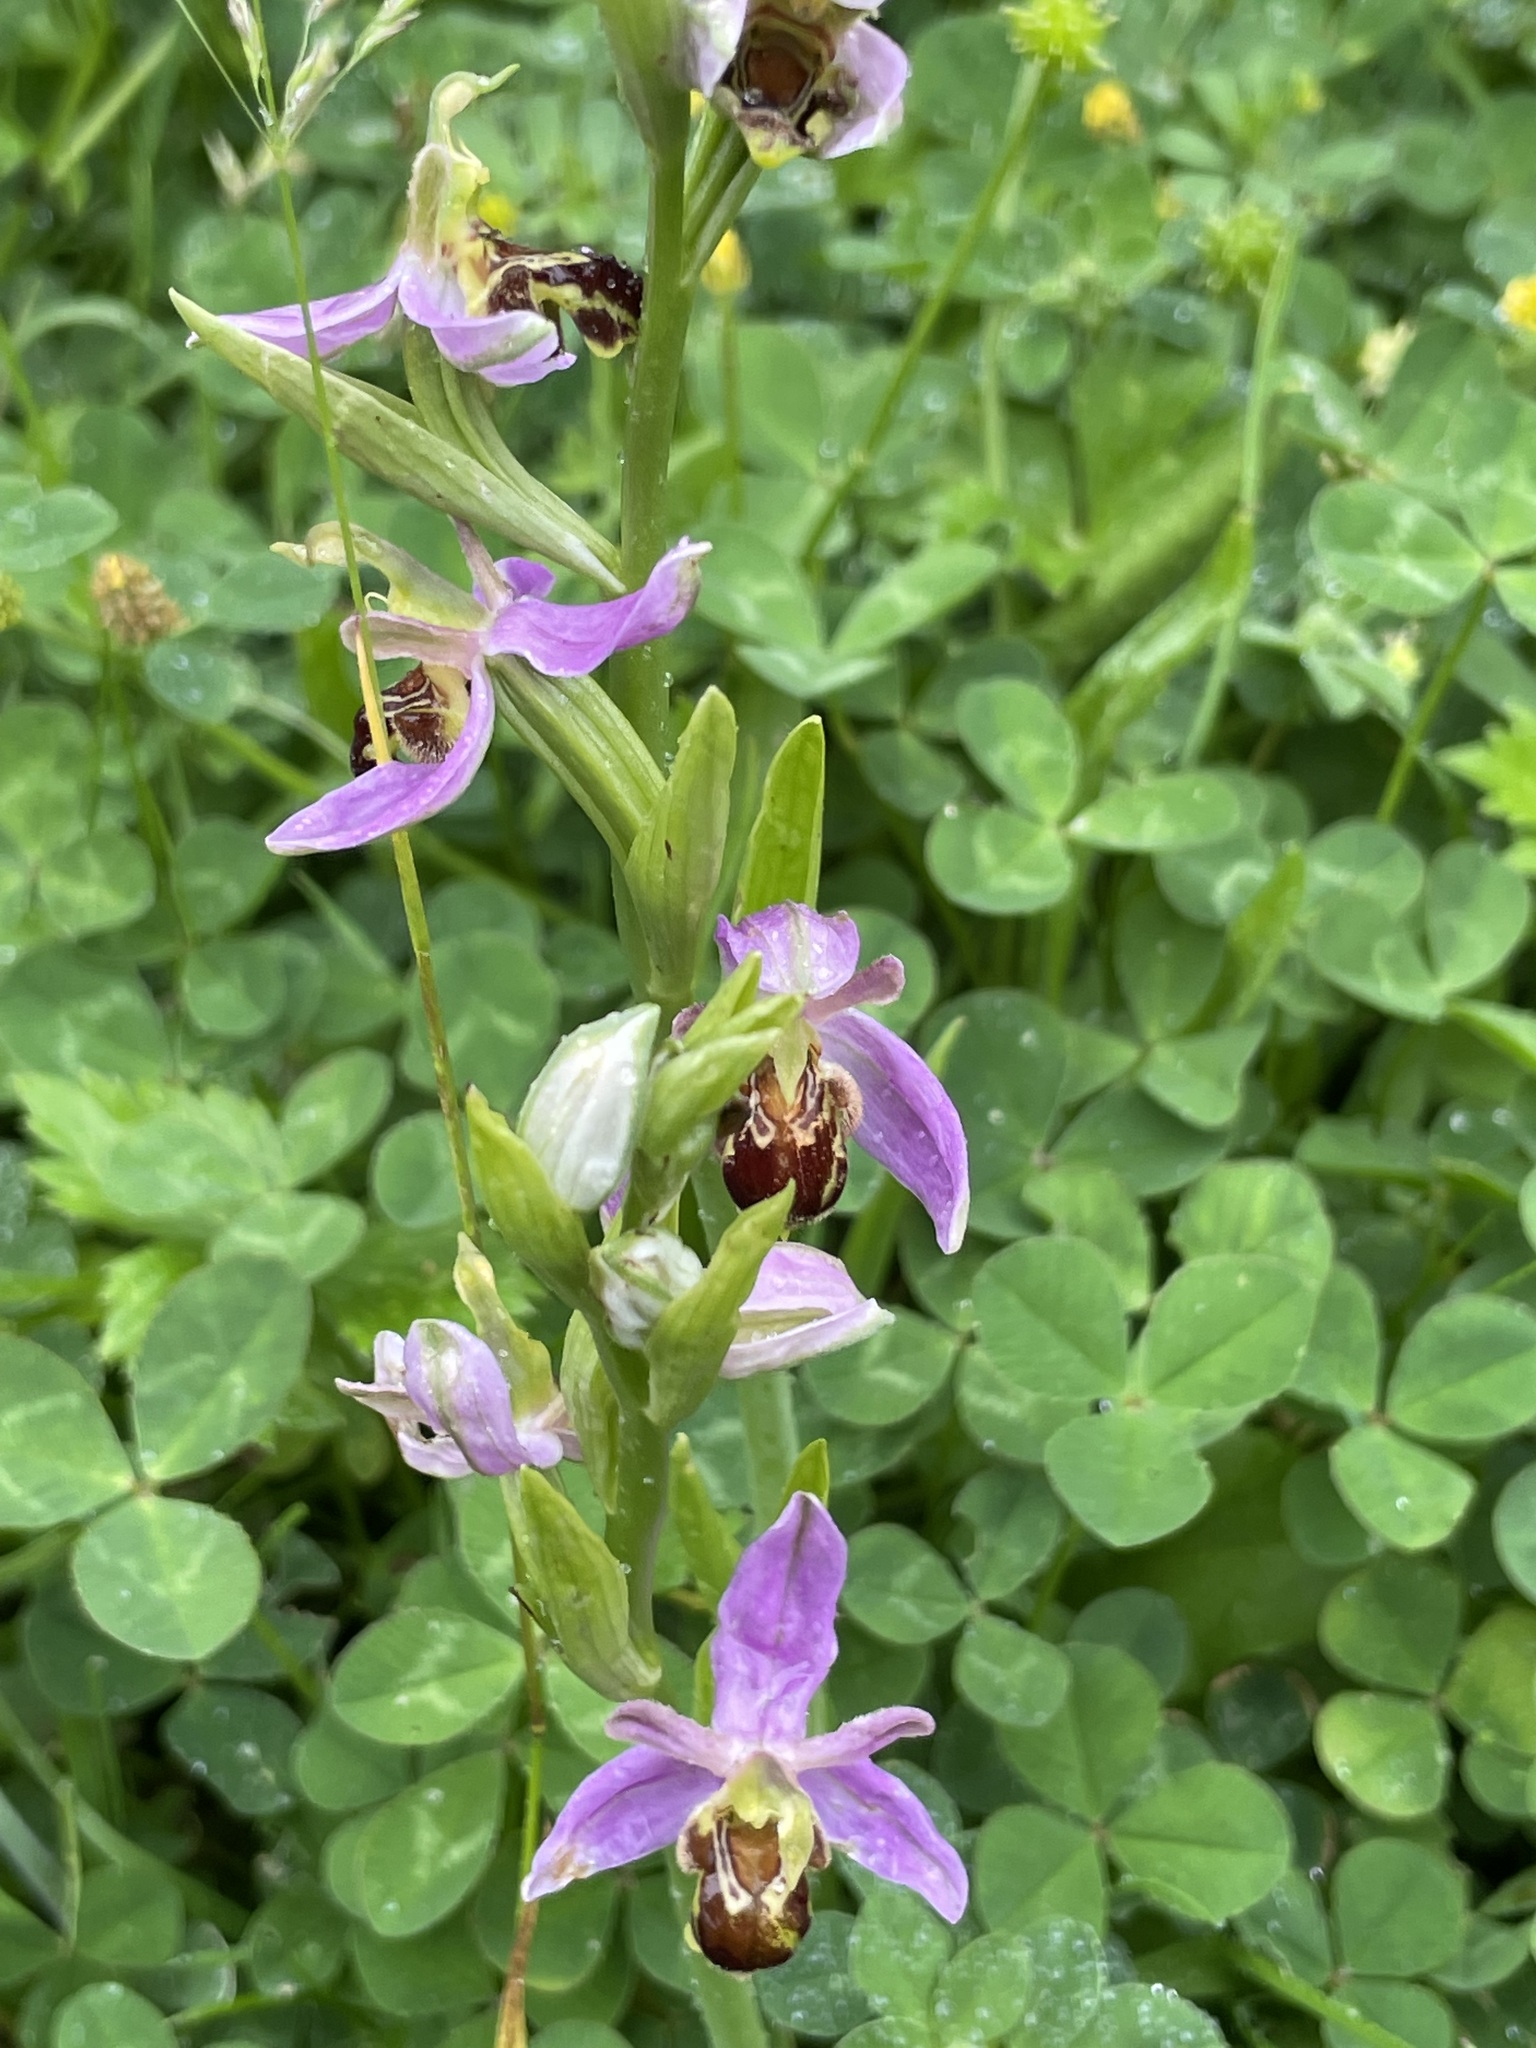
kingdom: Plantae
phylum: Tracheophyta
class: Liliopsida
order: Asparagales
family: Orchidaceae
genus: Ophrys
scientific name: Ophrys apifera
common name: Bee orchid
